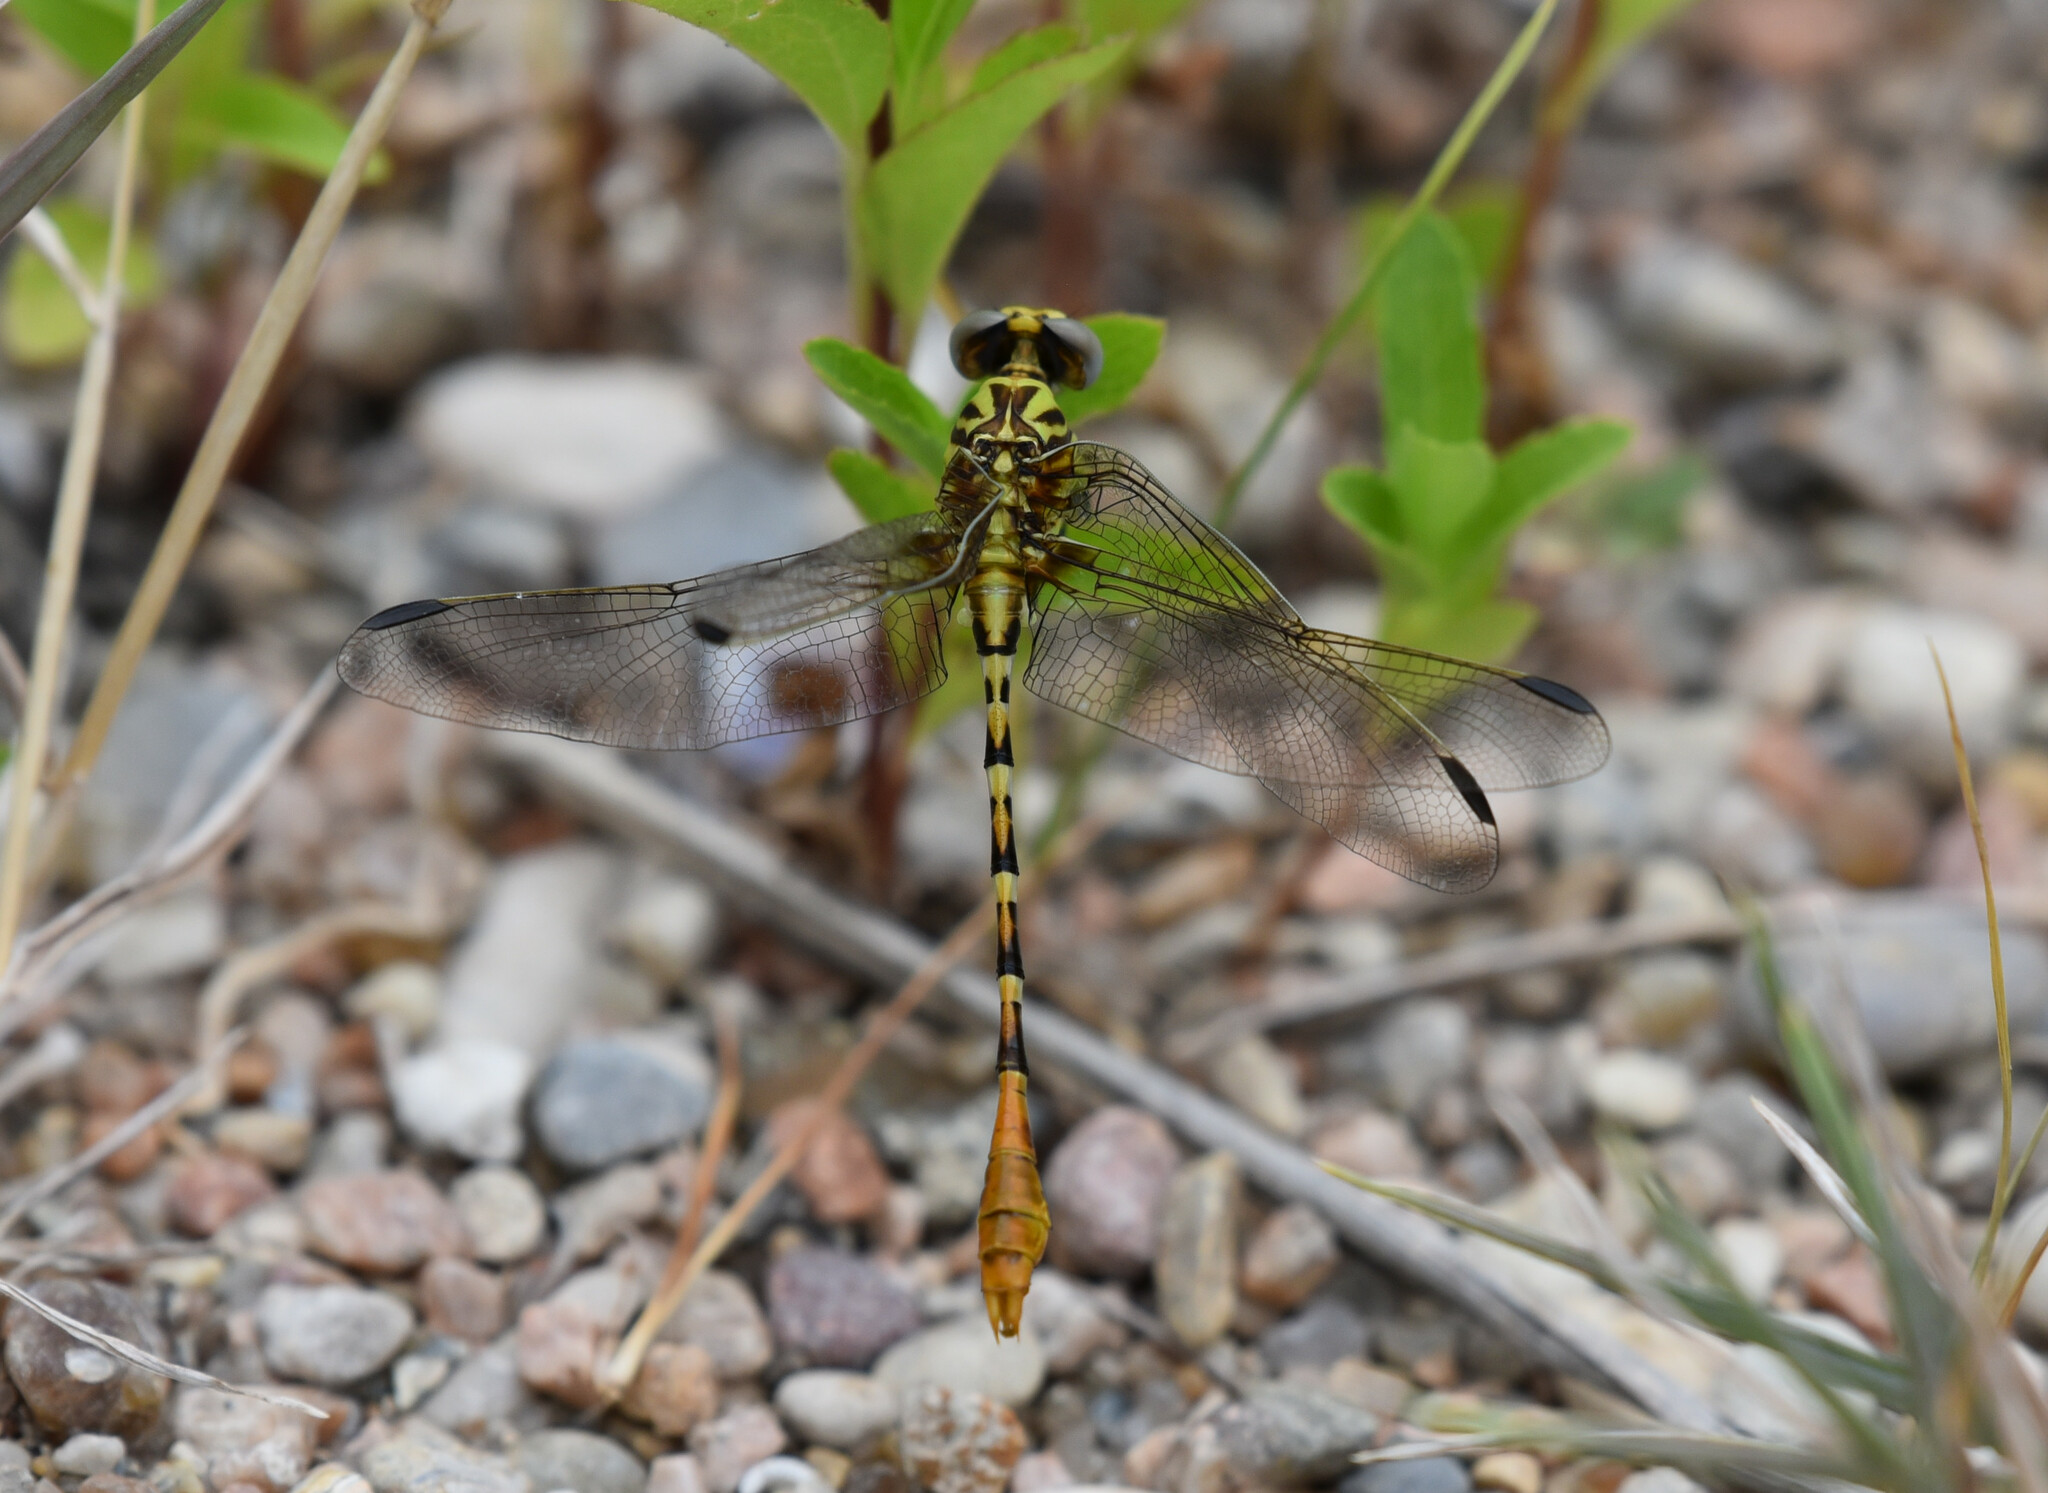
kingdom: Animalia
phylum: Arthropoda
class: Insecta
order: Odonata
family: Gomphidae
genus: Erpetogomphus
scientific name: Erpetogomphus designatus
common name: Eastern ringtail
